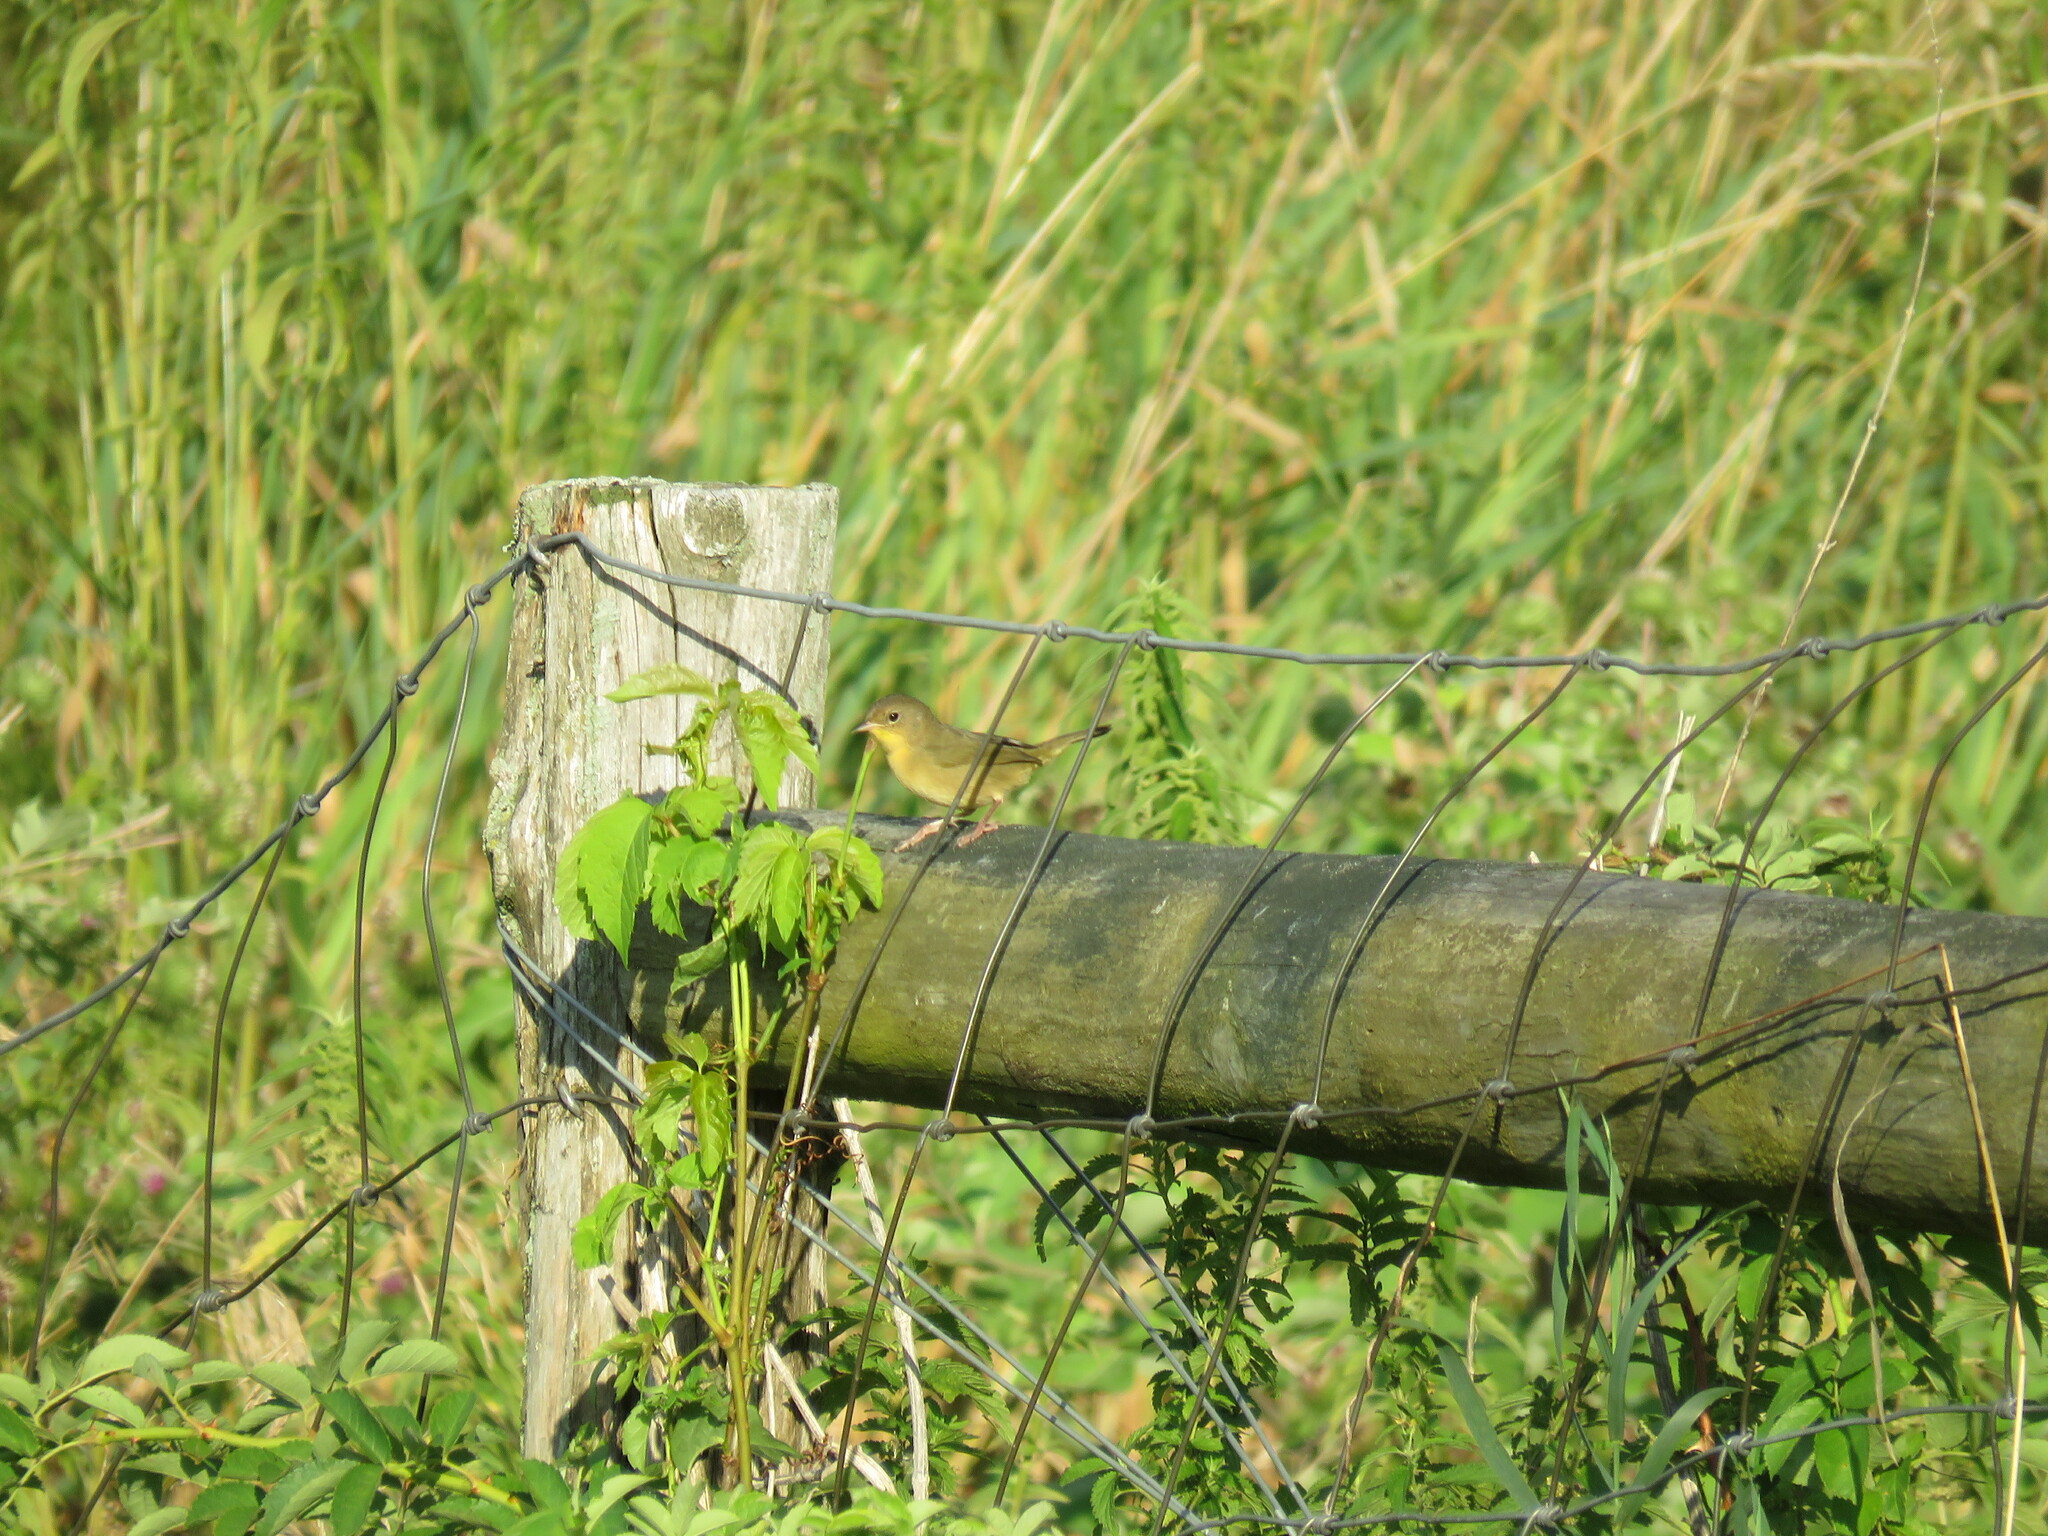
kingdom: Animalia
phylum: Chordata
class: Aves
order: Passeriformes
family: Parulidae
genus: Geothlypis
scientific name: Geothlypis trichas
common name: Common yellowthroat
